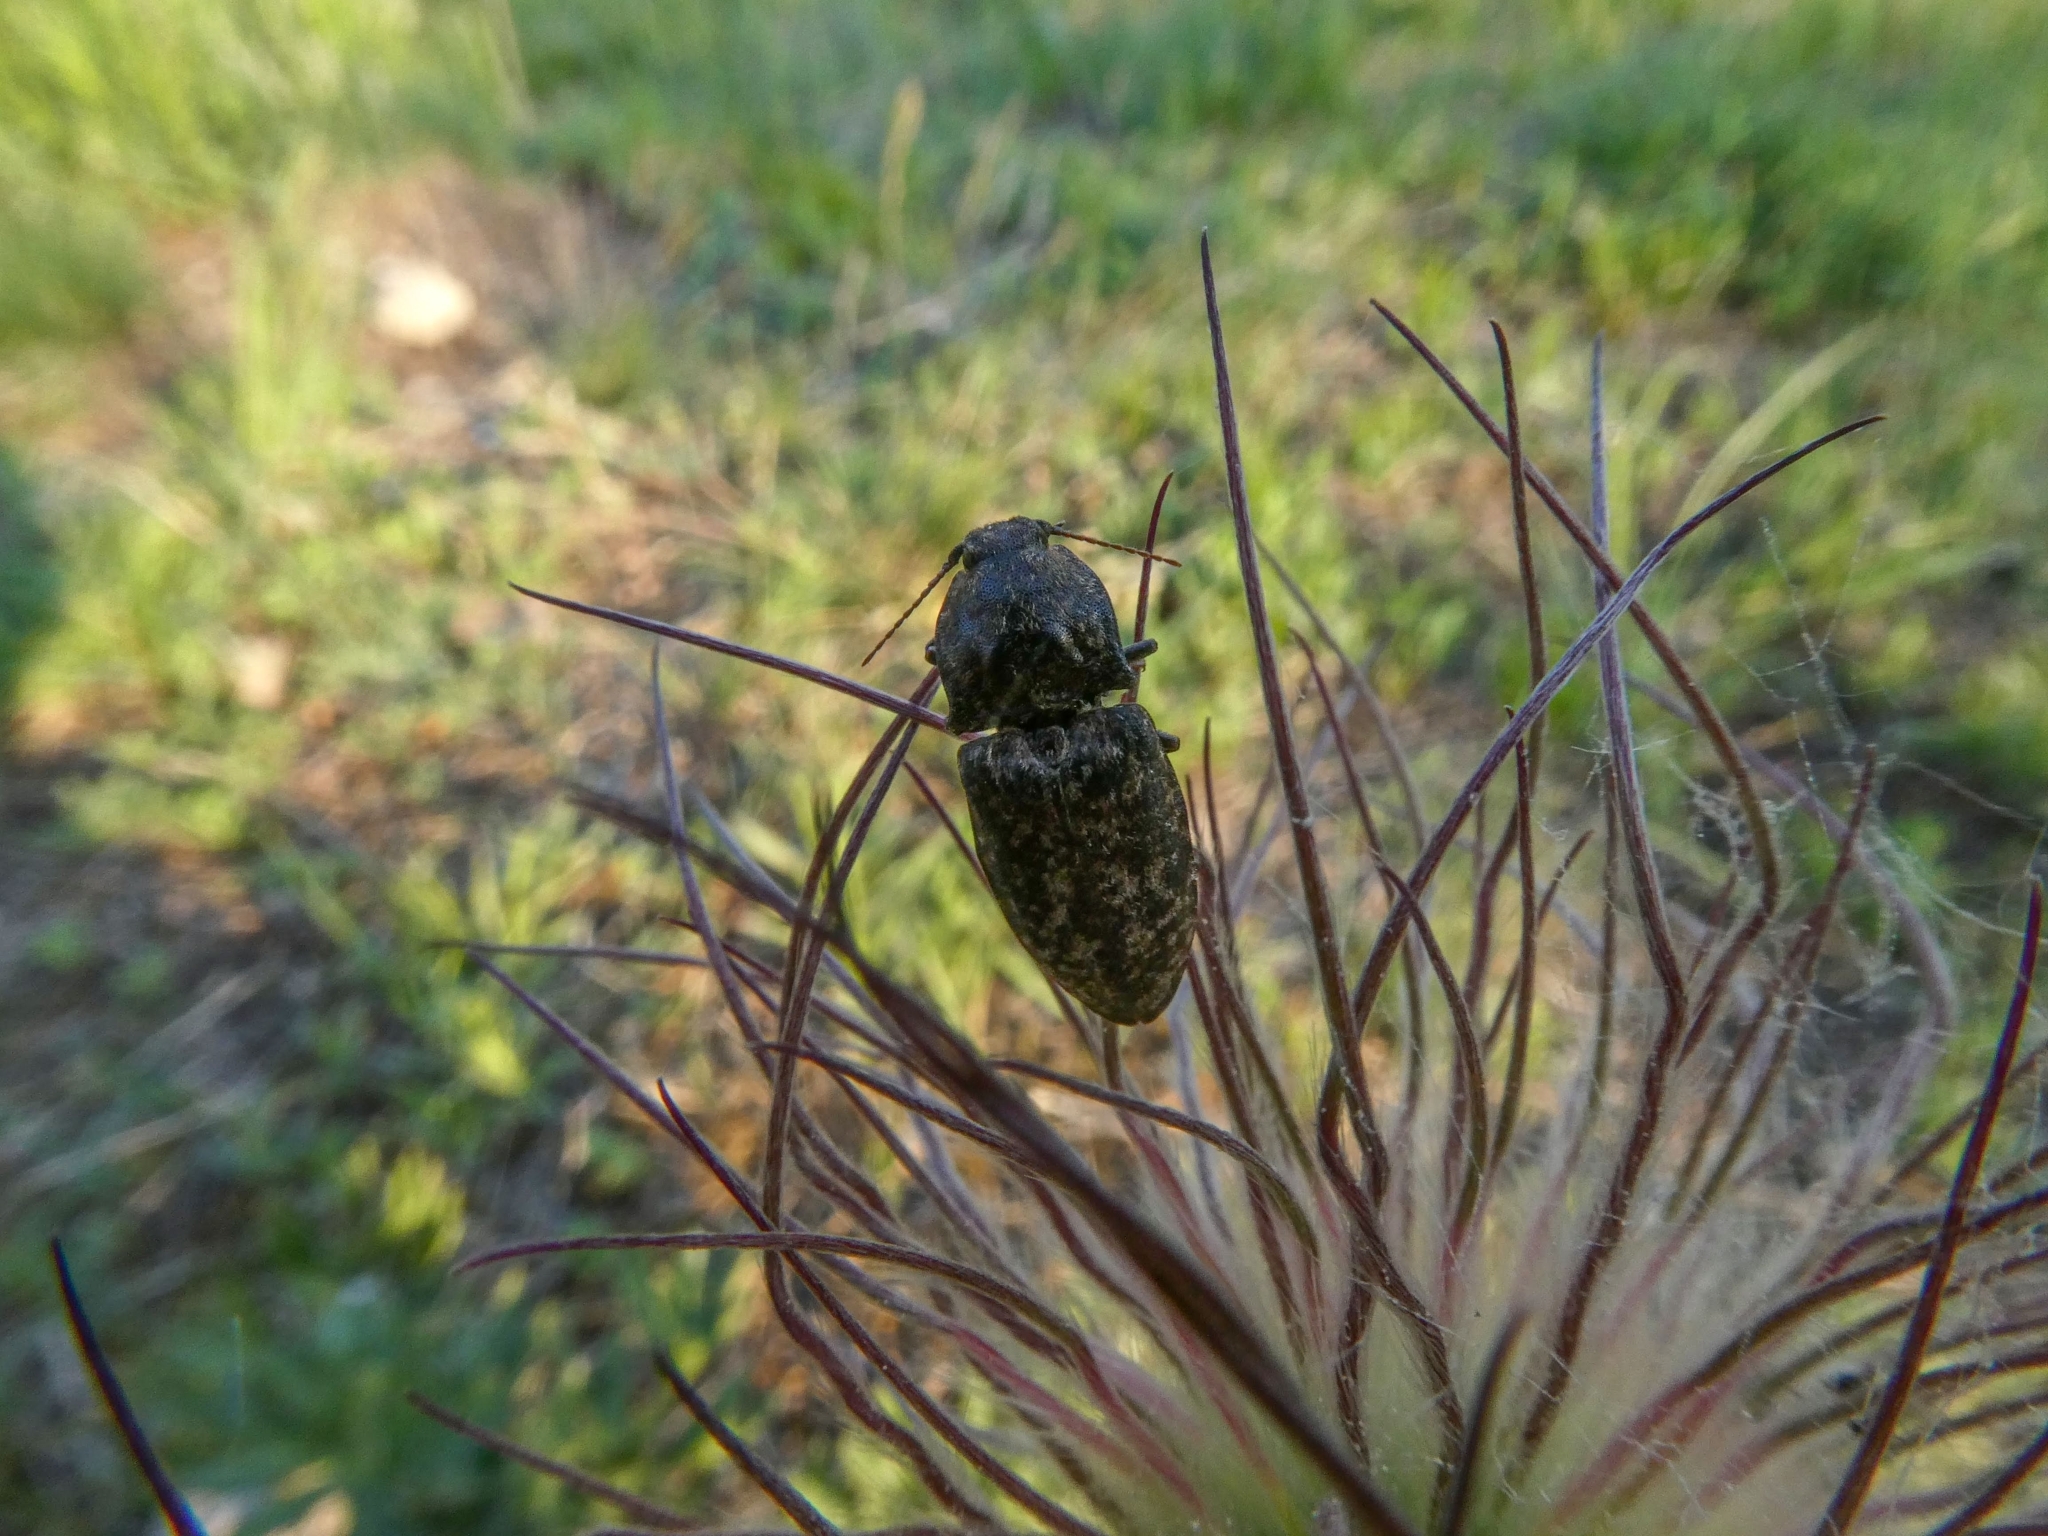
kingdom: Animalia
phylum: Arthropoda
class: Insecta
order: Coleoptera
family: Elateridae
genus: Agrypnus
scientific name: Agrypnus murinus
